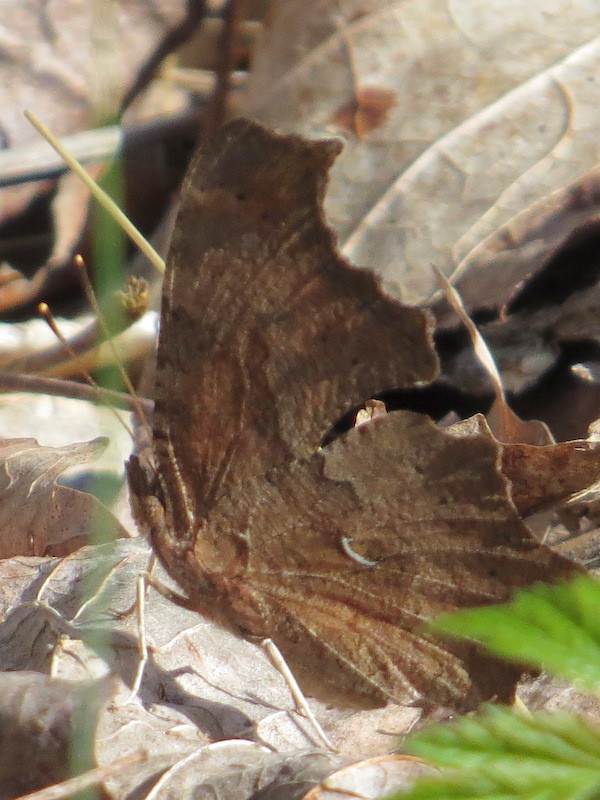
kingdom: Animalia
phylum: Arthropoda
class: Insecta
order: Lepidoptera
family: Nymphalidae
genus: Polygonia
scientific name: Polygonia comma
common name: Eastern comma
